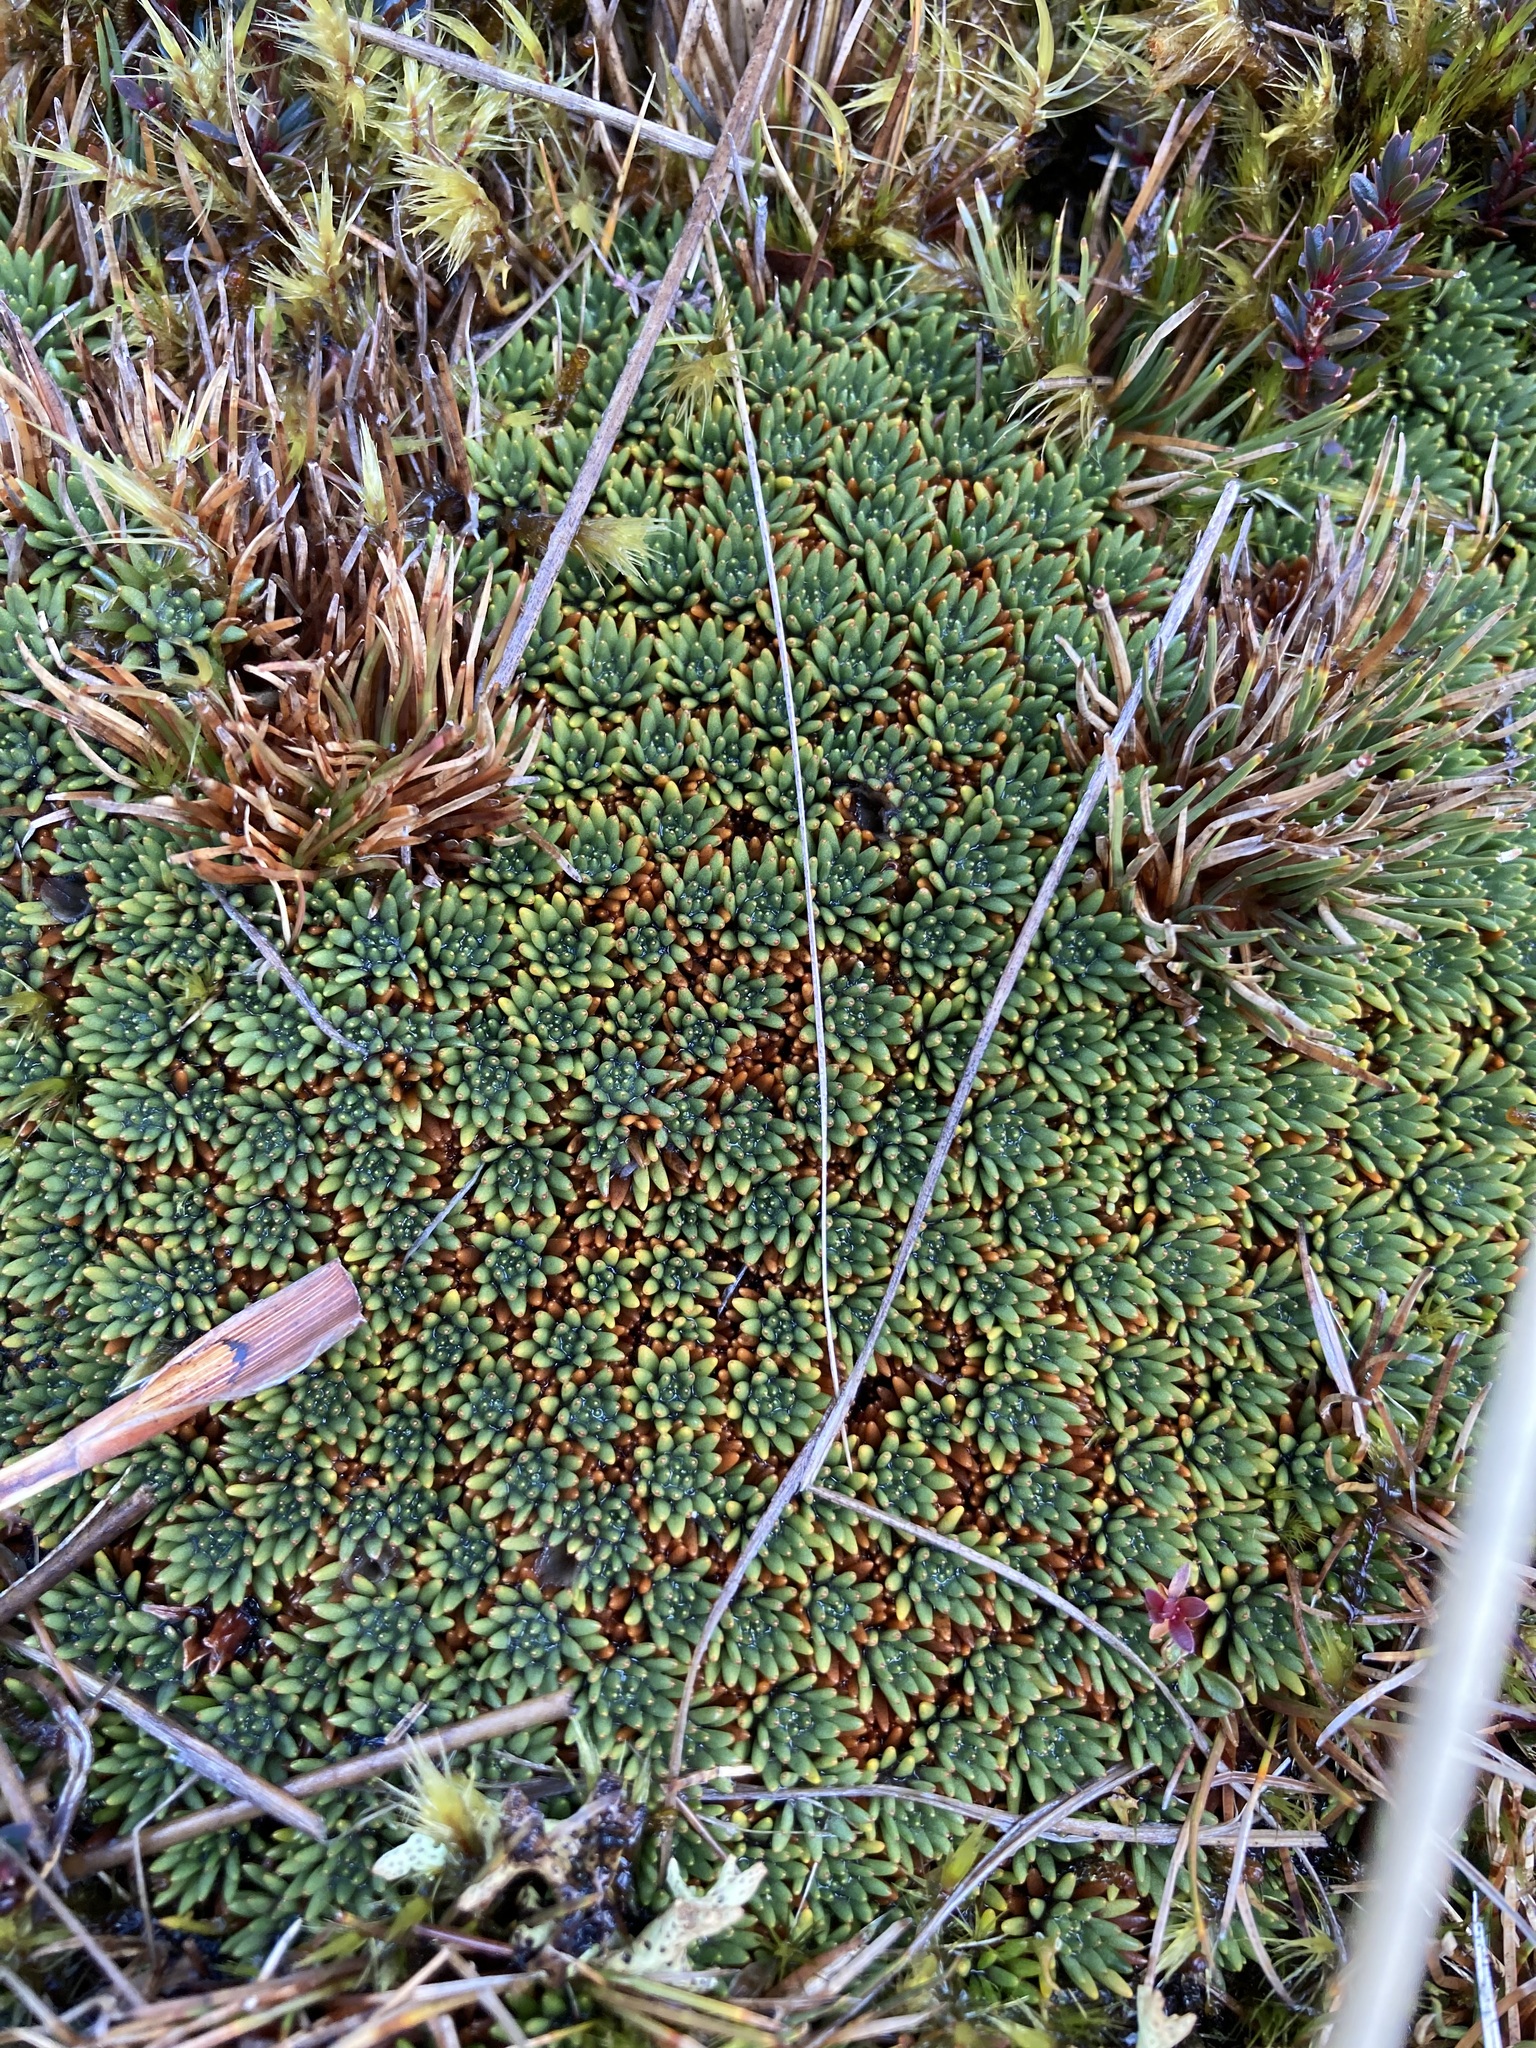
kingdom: Plantae
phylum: Tracheophyta
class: Magnoliopsida
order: Asterales
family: Stylidiaceae
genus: Donatia
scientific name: Donatia novae-zelandiae
